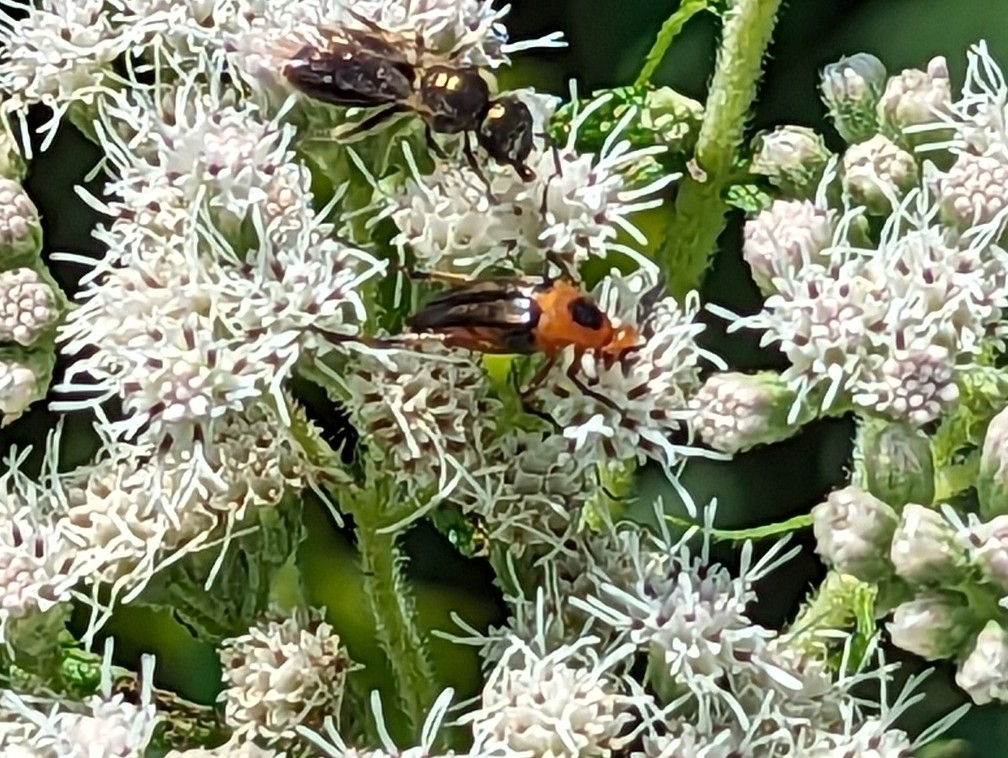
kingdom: Animalia
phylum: Arthropoda
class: Insecta
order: Coleoptera
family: Ripiphoridae
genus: Macrosiagon
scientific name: Macrosiagon limbatum
